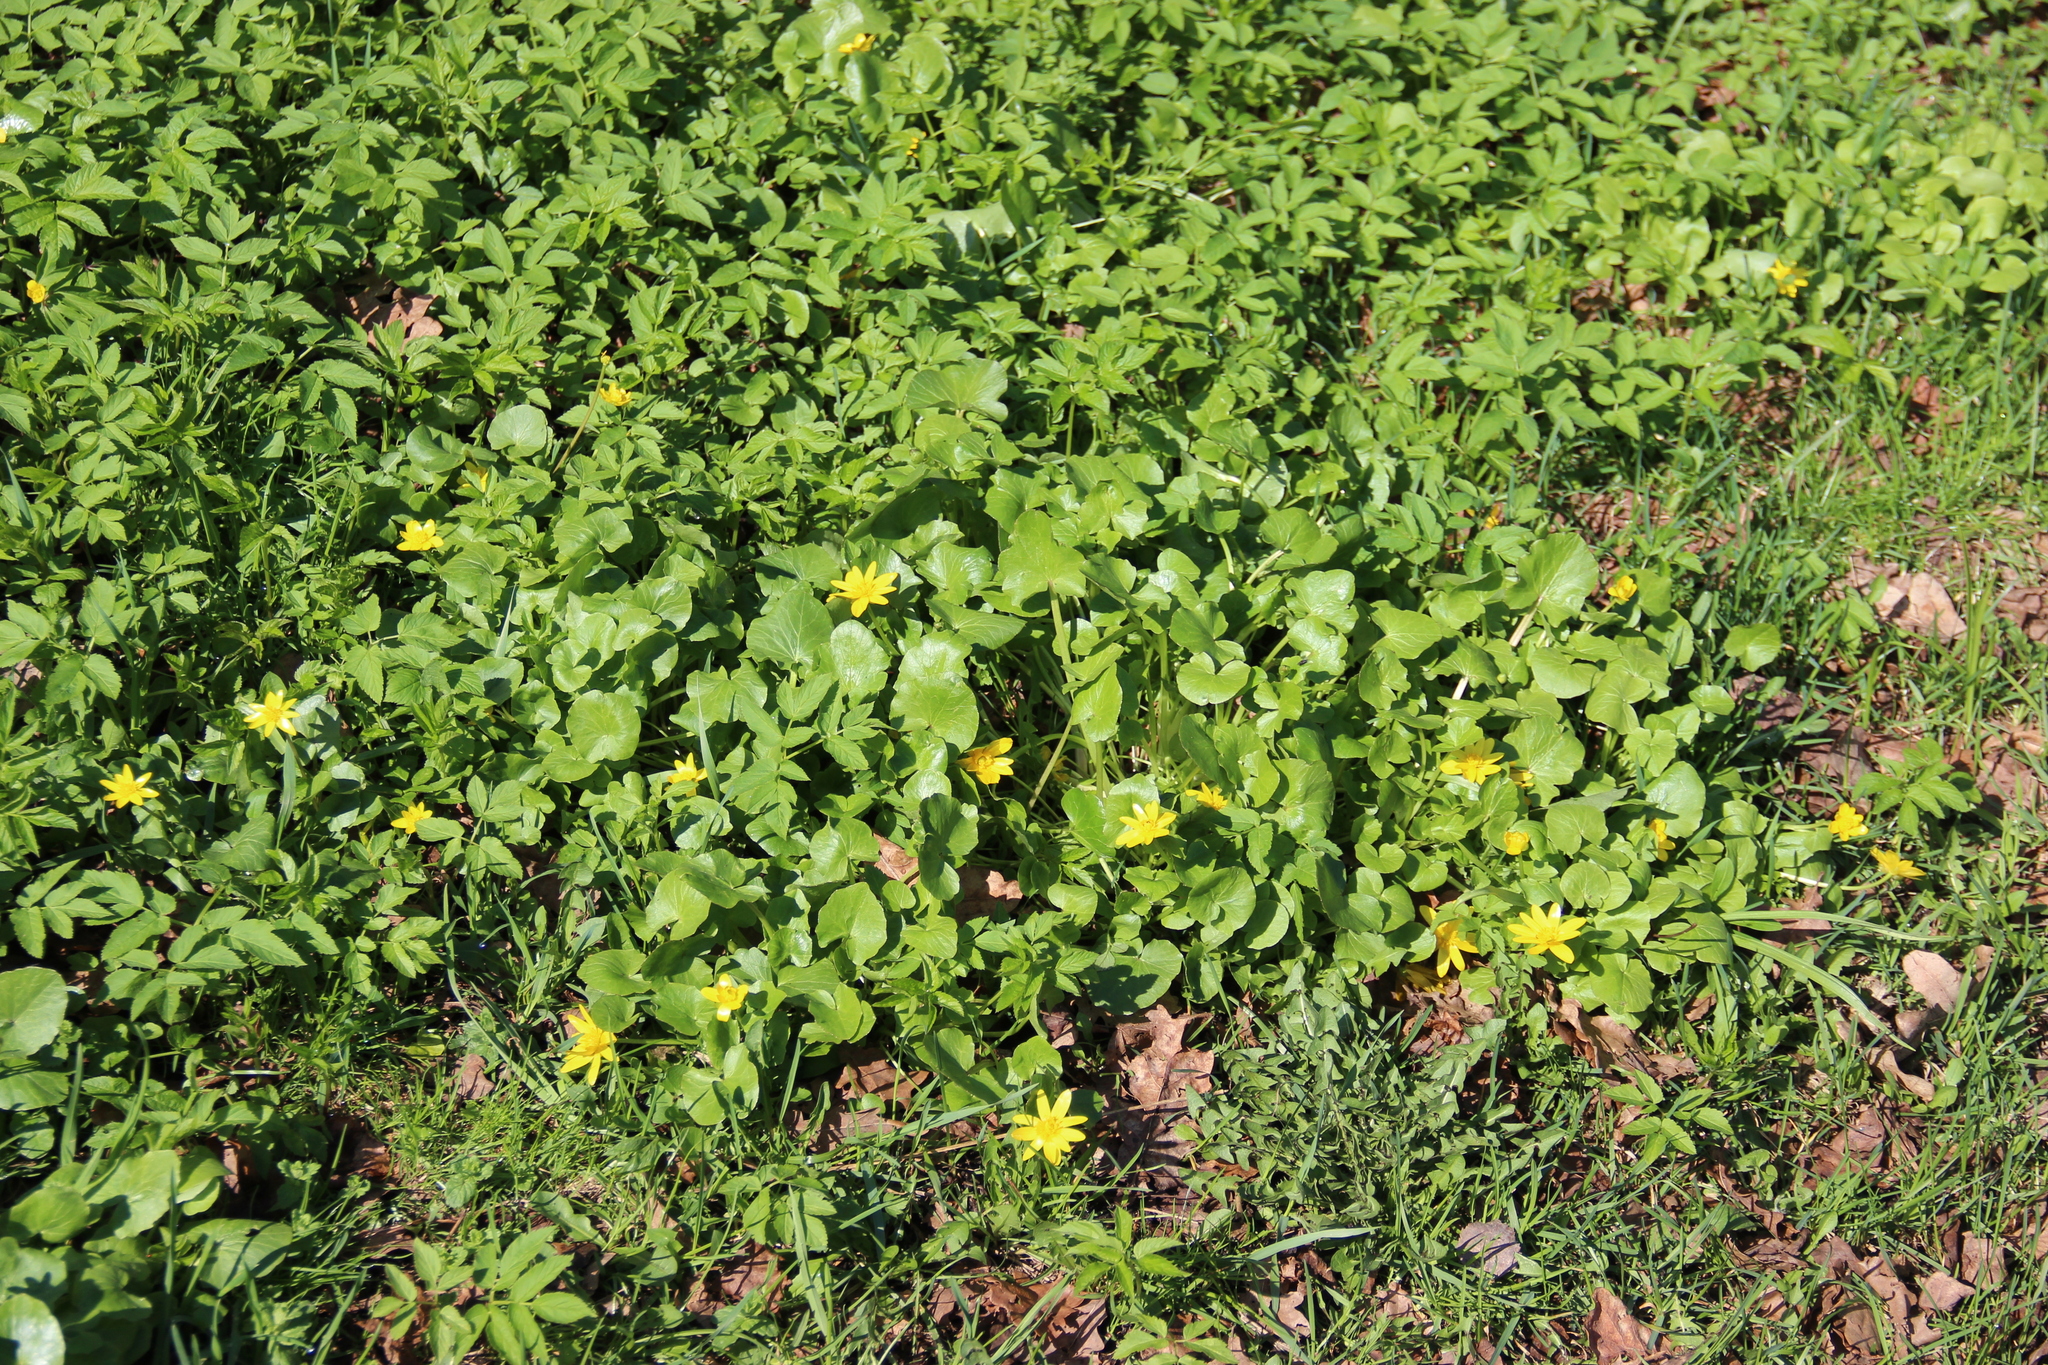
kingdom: Plantae
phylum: Tracheophyta
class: Magnoliopsida
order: Ranunculales
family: Ranunculaceae
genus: Ficaria
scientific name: Ficaria verna
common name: Lesser celandine
